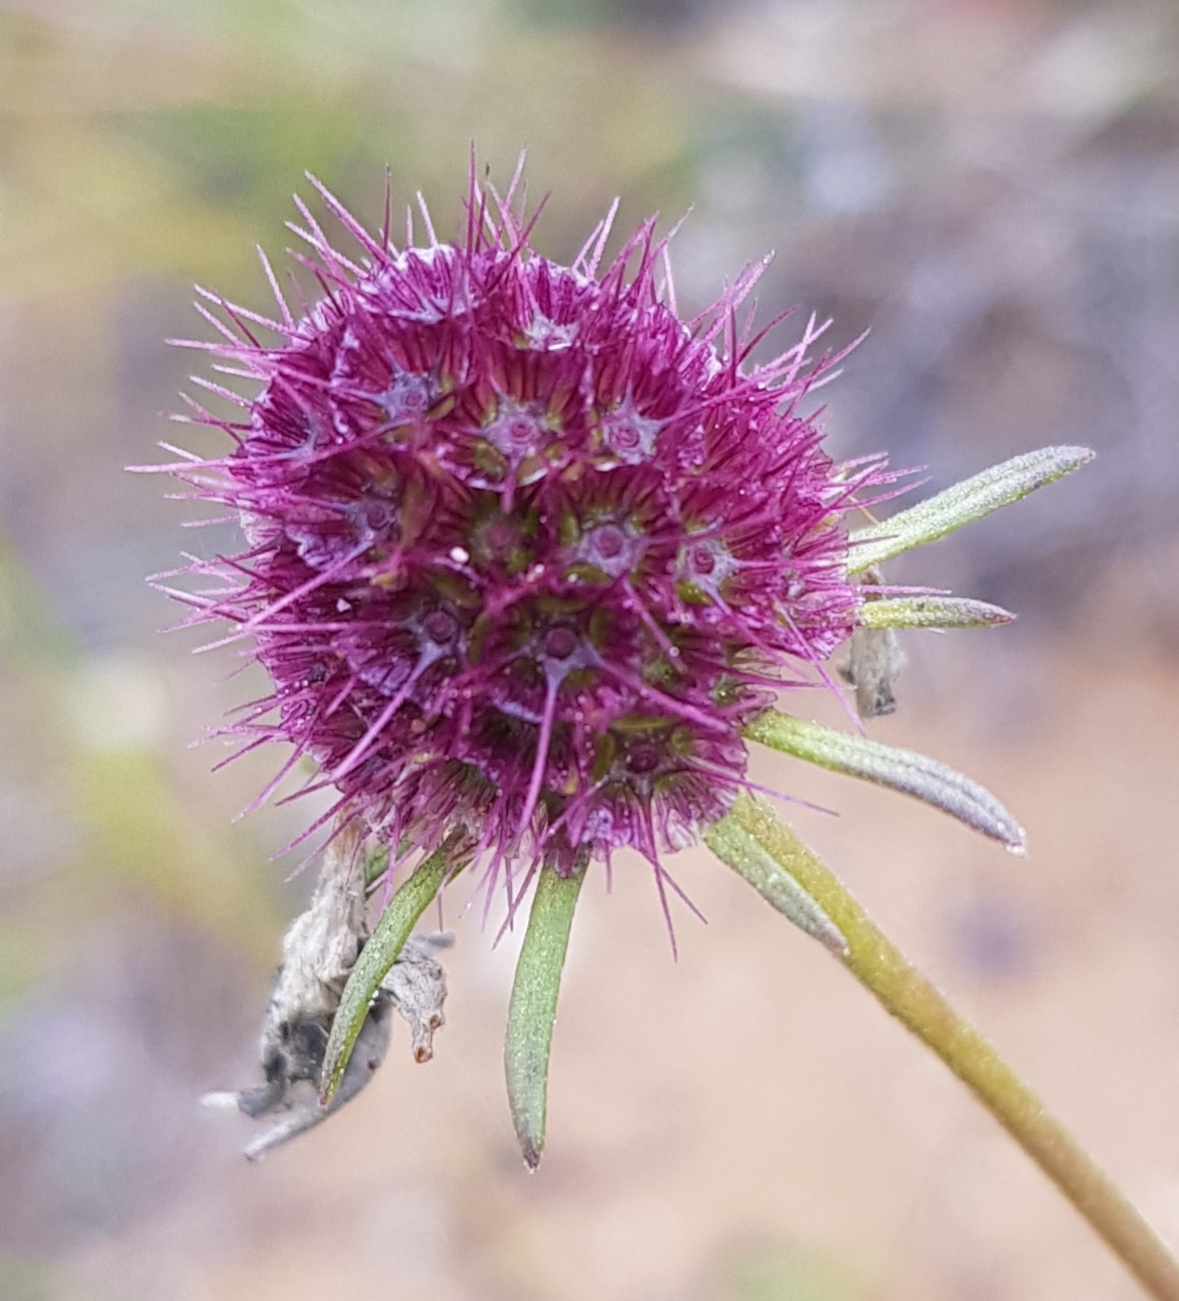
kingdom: Plantae
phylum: Tracheophyta
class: Magnoliopsida
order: Dipsacales
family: Caprifoliaceae
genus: Scabiosa
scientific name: Scabiosa comosa
